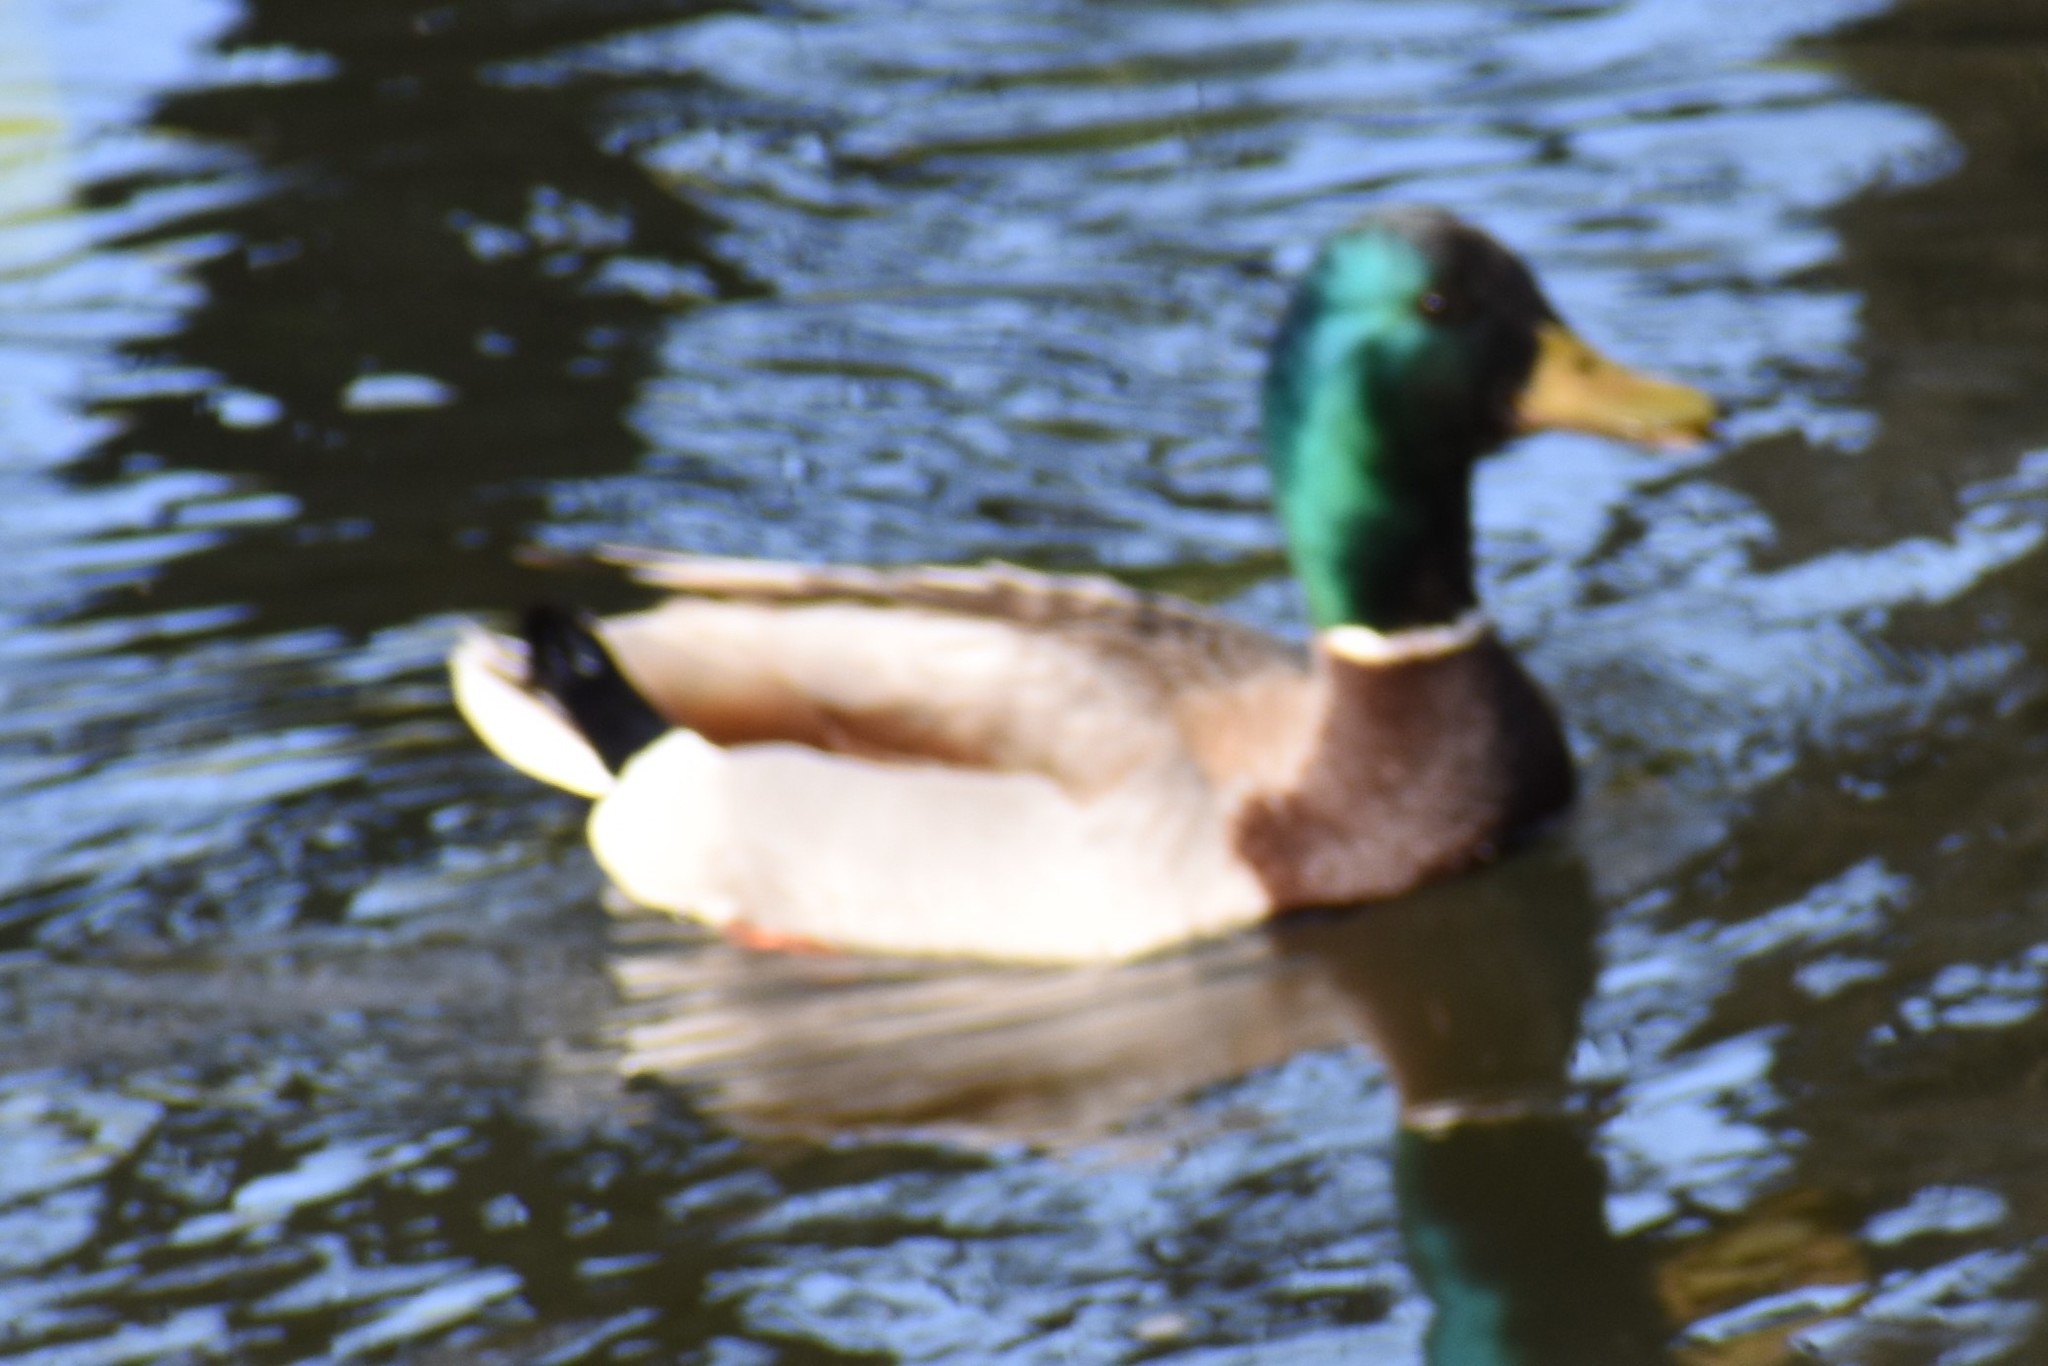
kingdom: Animalia
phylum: Chordata
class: Aves
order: Anseriformes
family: Anatidae
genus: Anas
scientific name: Anas platyrhynchos
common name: Mallard
